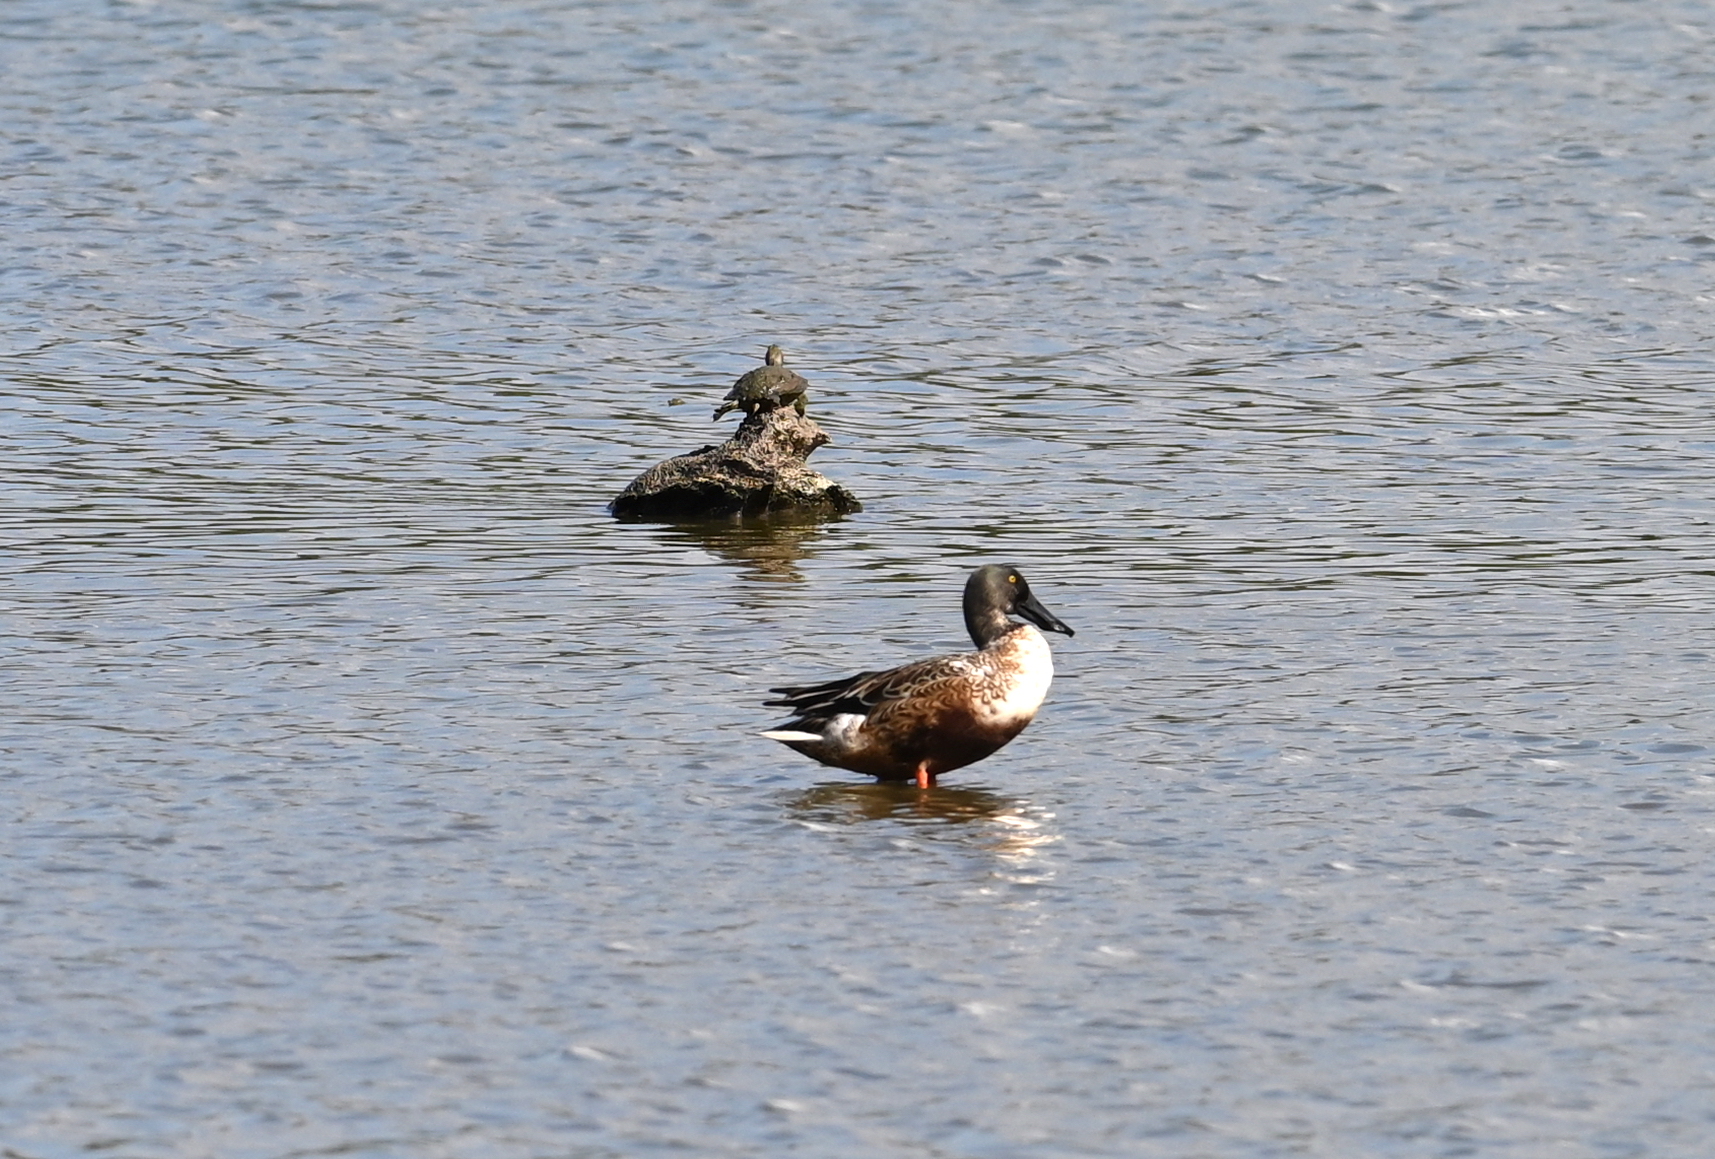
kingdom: Animalia
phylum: Chordata
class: Aves
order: Anseriformes
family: Anatidae
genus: Spatula
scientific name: Spatula clypeata
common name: Northern shoveler
